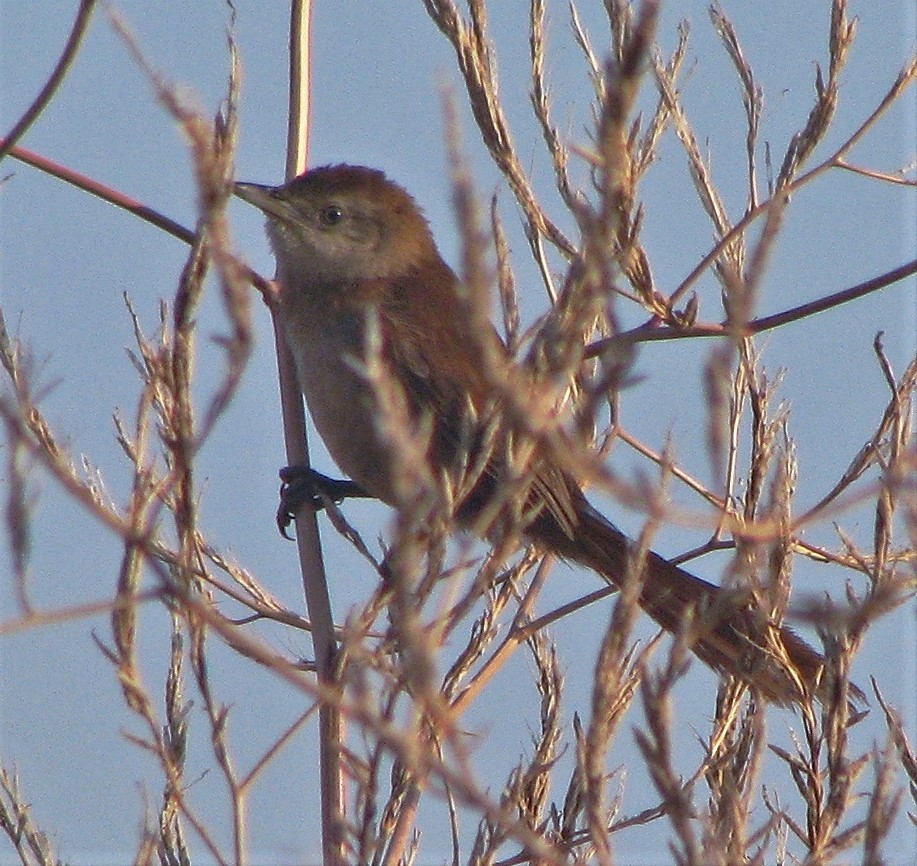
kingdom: Animalia
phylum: Chordata
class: Aves
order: Passeriformes
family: Furnariidae
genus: Phacellodomus
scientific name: Phacellodomus striaticollis
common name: Freckle-breasted thornbird
